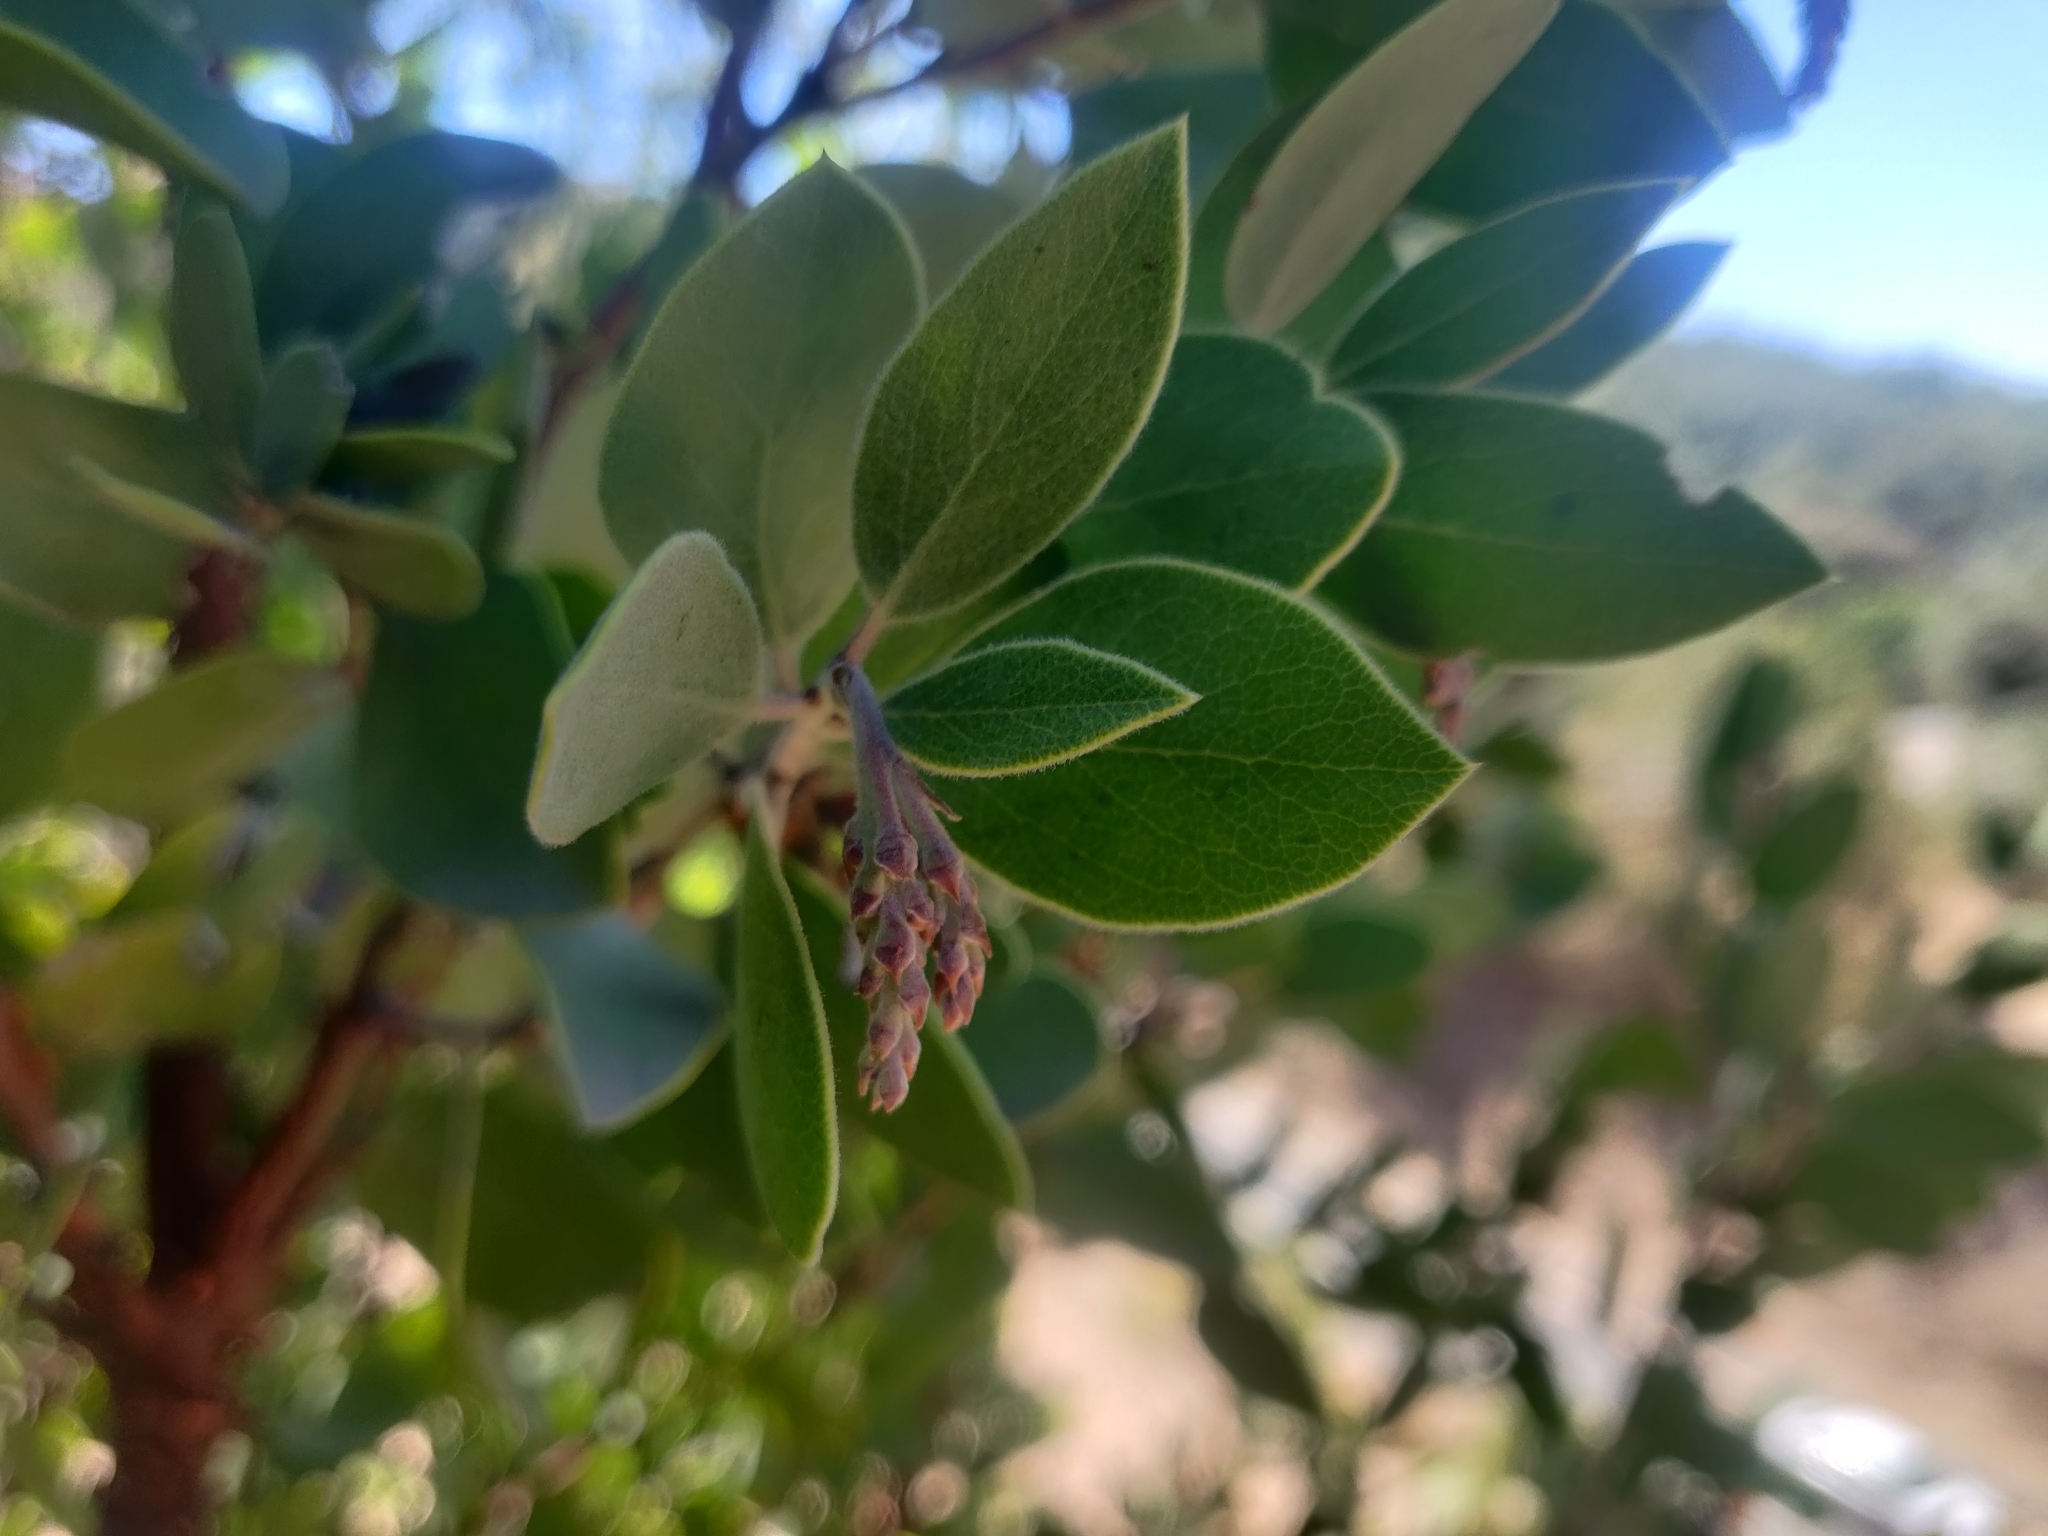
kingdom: Plantae
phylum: Tracheophyta
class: Magnoliopsida
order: Ericales
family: Ericaceae
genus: Arctostaphylos
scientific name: Arctostaphylos manzanita
